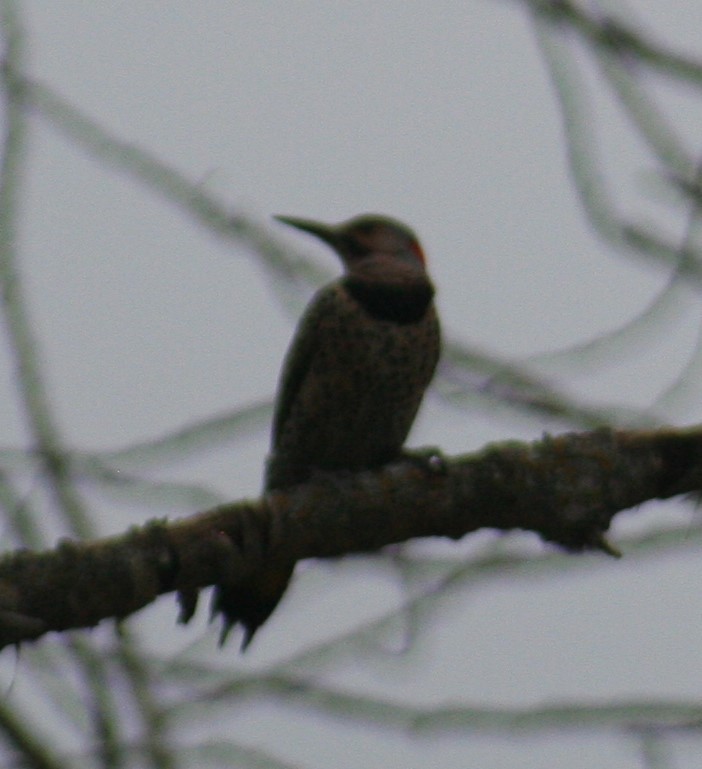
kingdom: Animalia
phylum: Chordata
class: Aves
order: Piciformes
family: Picidae
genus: Colaptes
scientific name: Colaptes auratus
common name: Northern flicker
